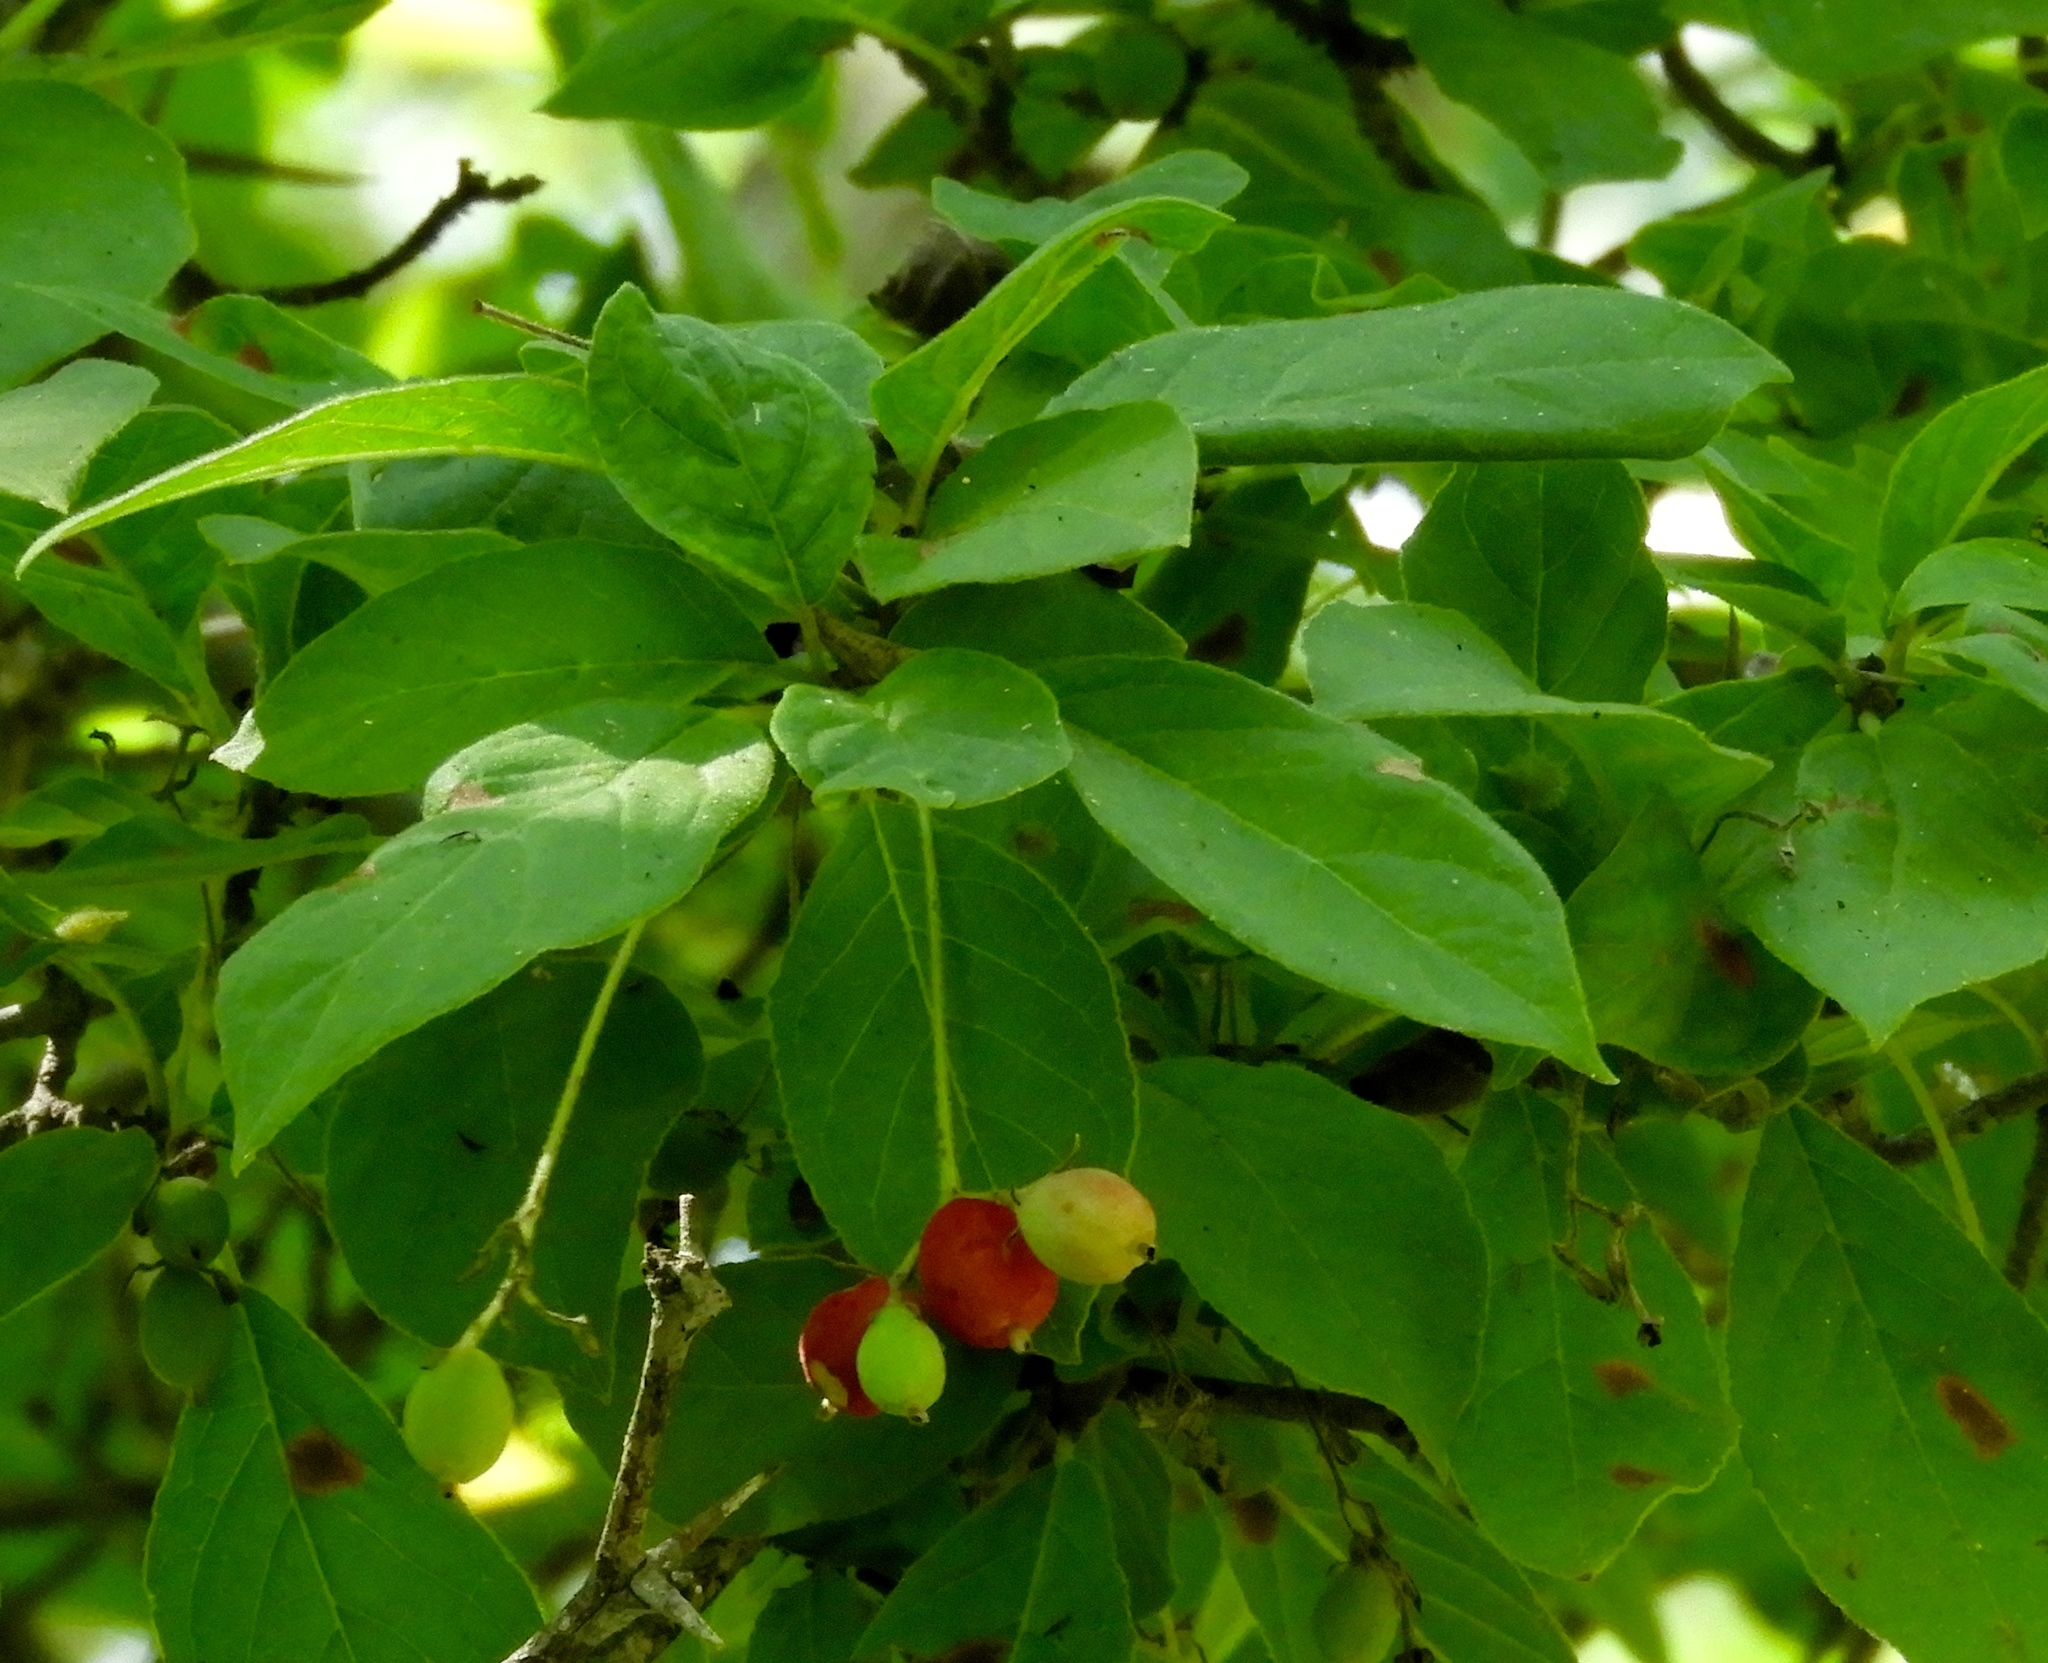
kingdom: Plantae
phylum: Tracheophyta
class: Magnoliopsida
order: Gentianales
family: Rubiaceae
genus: Guettarda
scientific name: Guettarda elliptica
